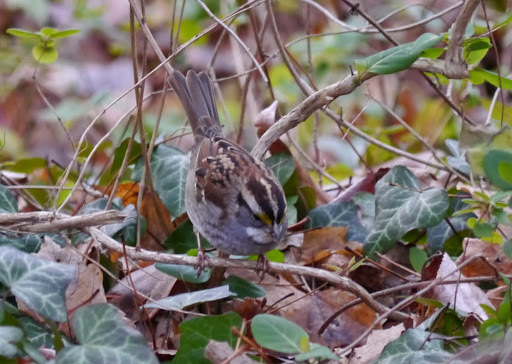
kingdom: Animalia
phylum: Chordata
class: Aves
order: Passeriformes
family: Passerellidae
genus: Zonotrichia
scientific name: Zonotrichia albicollis
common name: White-throated sparrow
